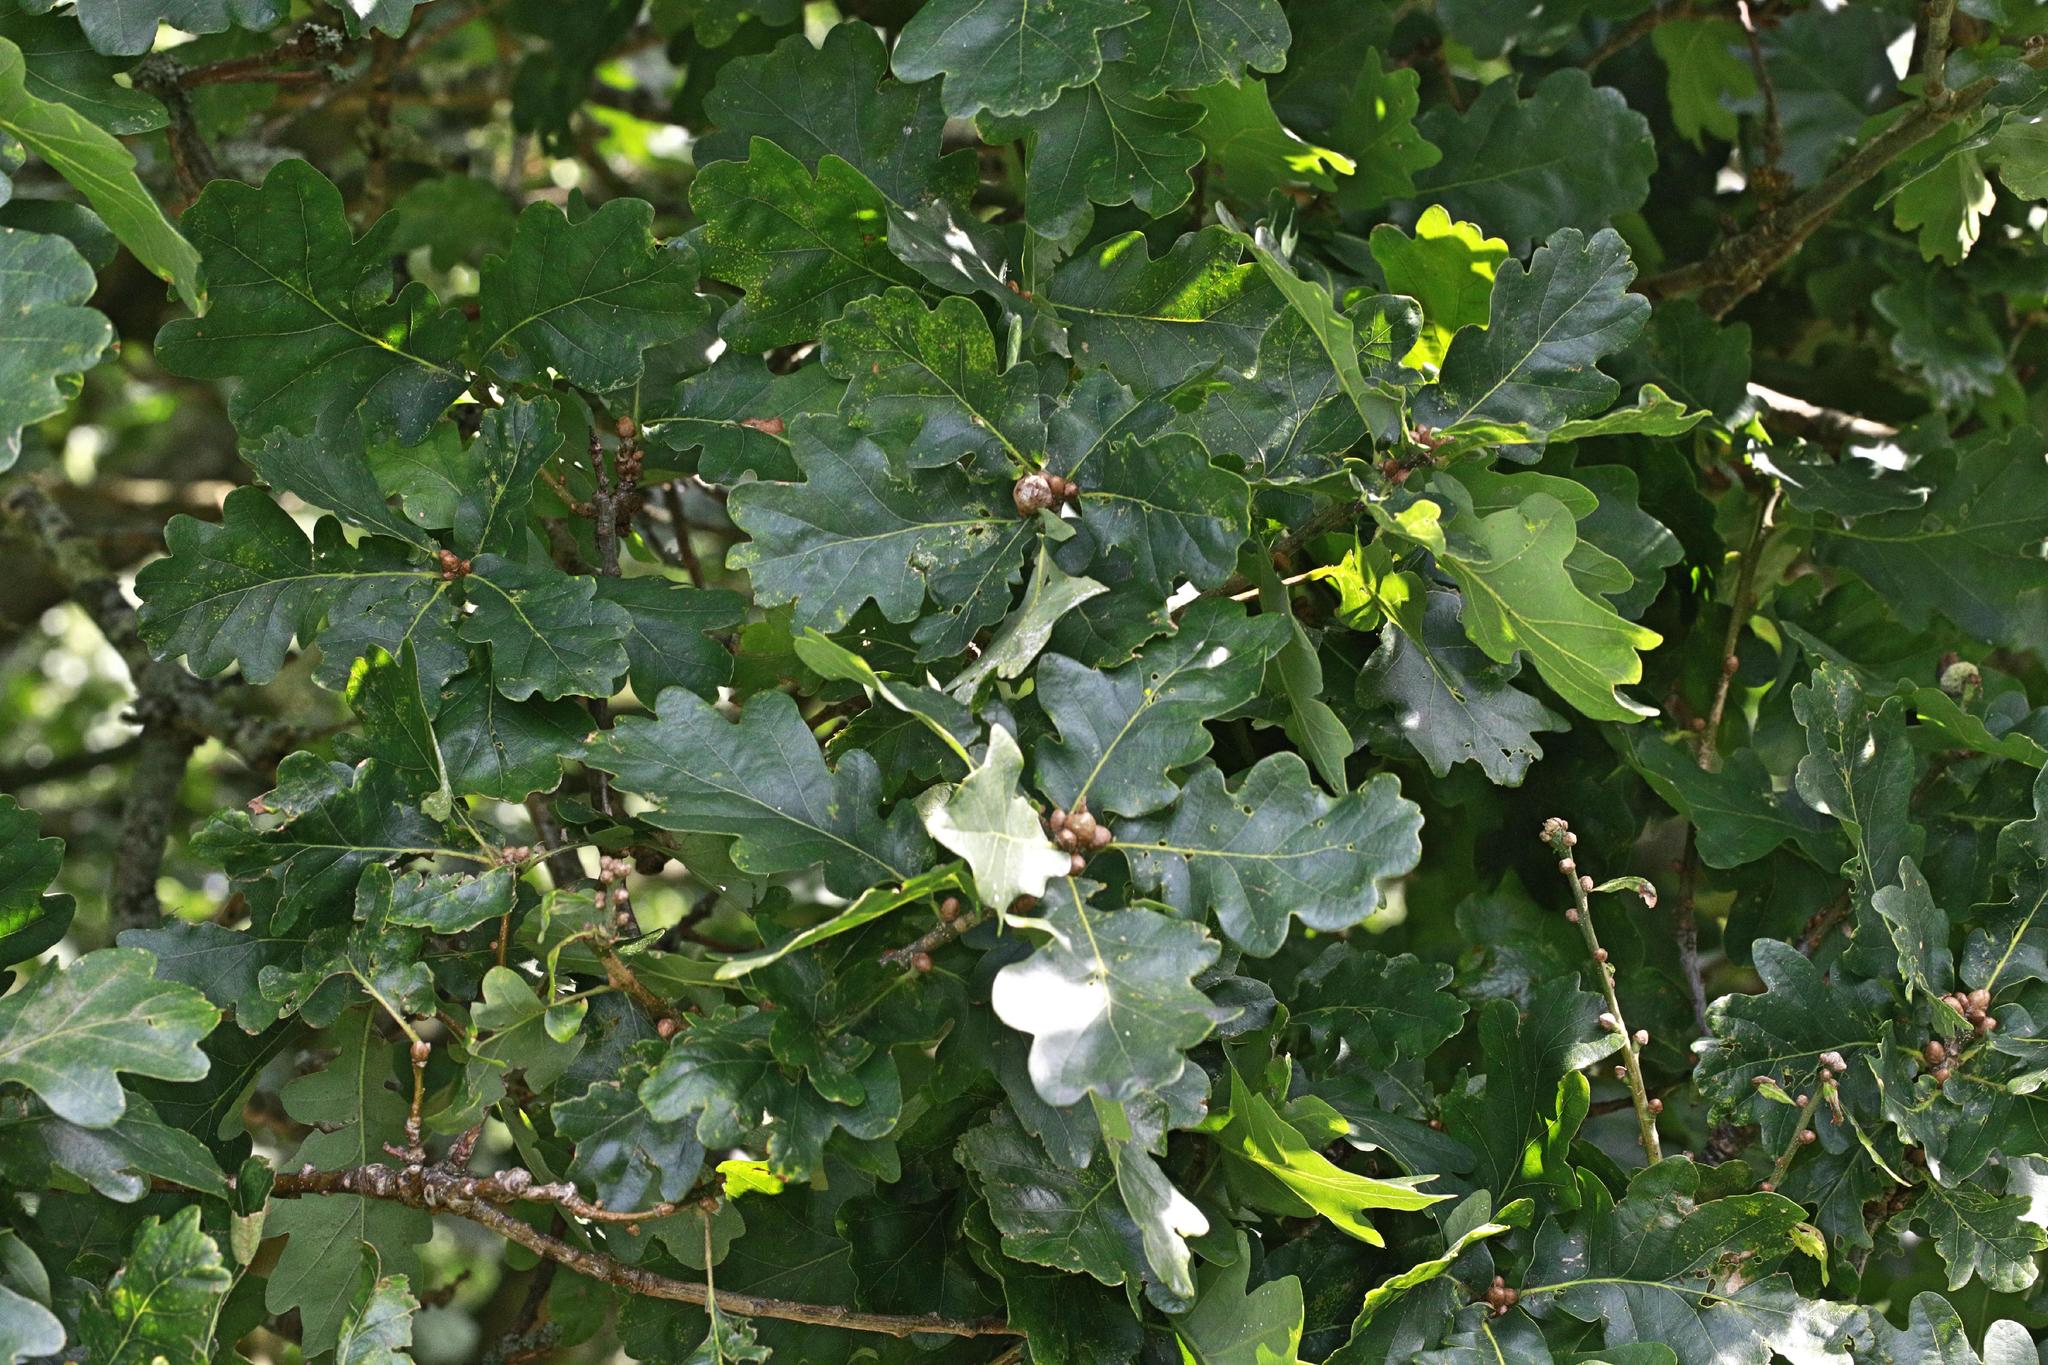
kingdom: Plantae
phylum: Tracheophyta
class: Magnoliopsida
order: Fagales
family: Fagaceae
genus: Quercus
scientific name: Quercus robur
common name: Pedunculate oak
